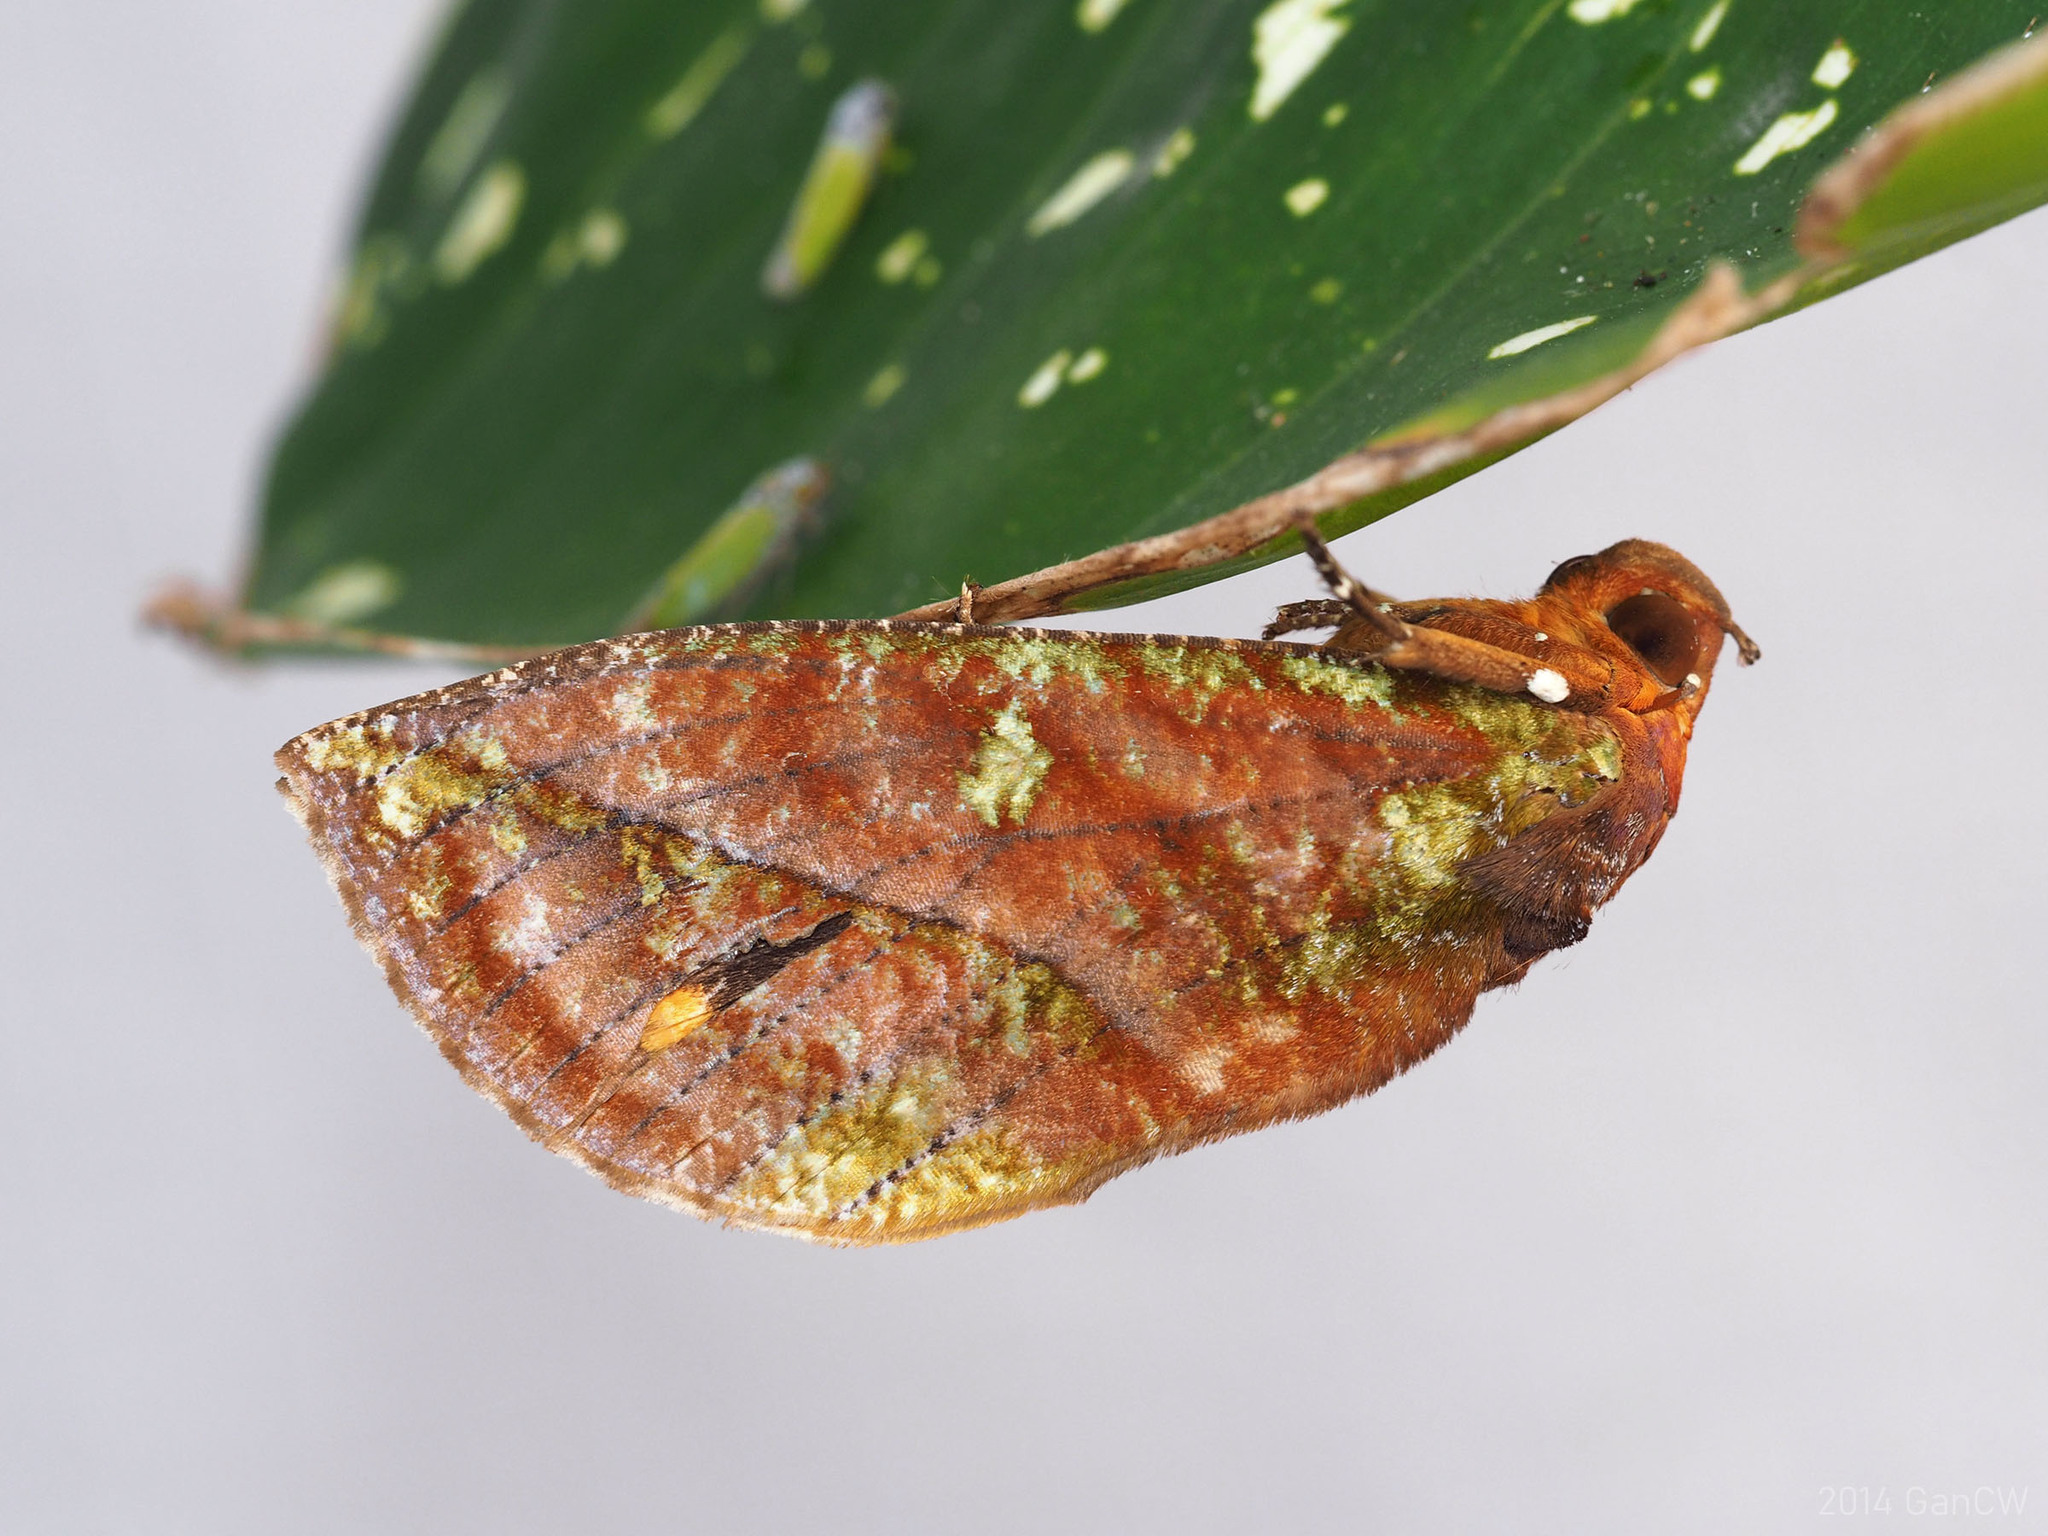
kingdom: Animalia
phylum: Arthropoda
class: Insecta
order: Lepidoptera
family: Erebidae
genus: Eudocima
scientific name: Eudocima mionopastea
